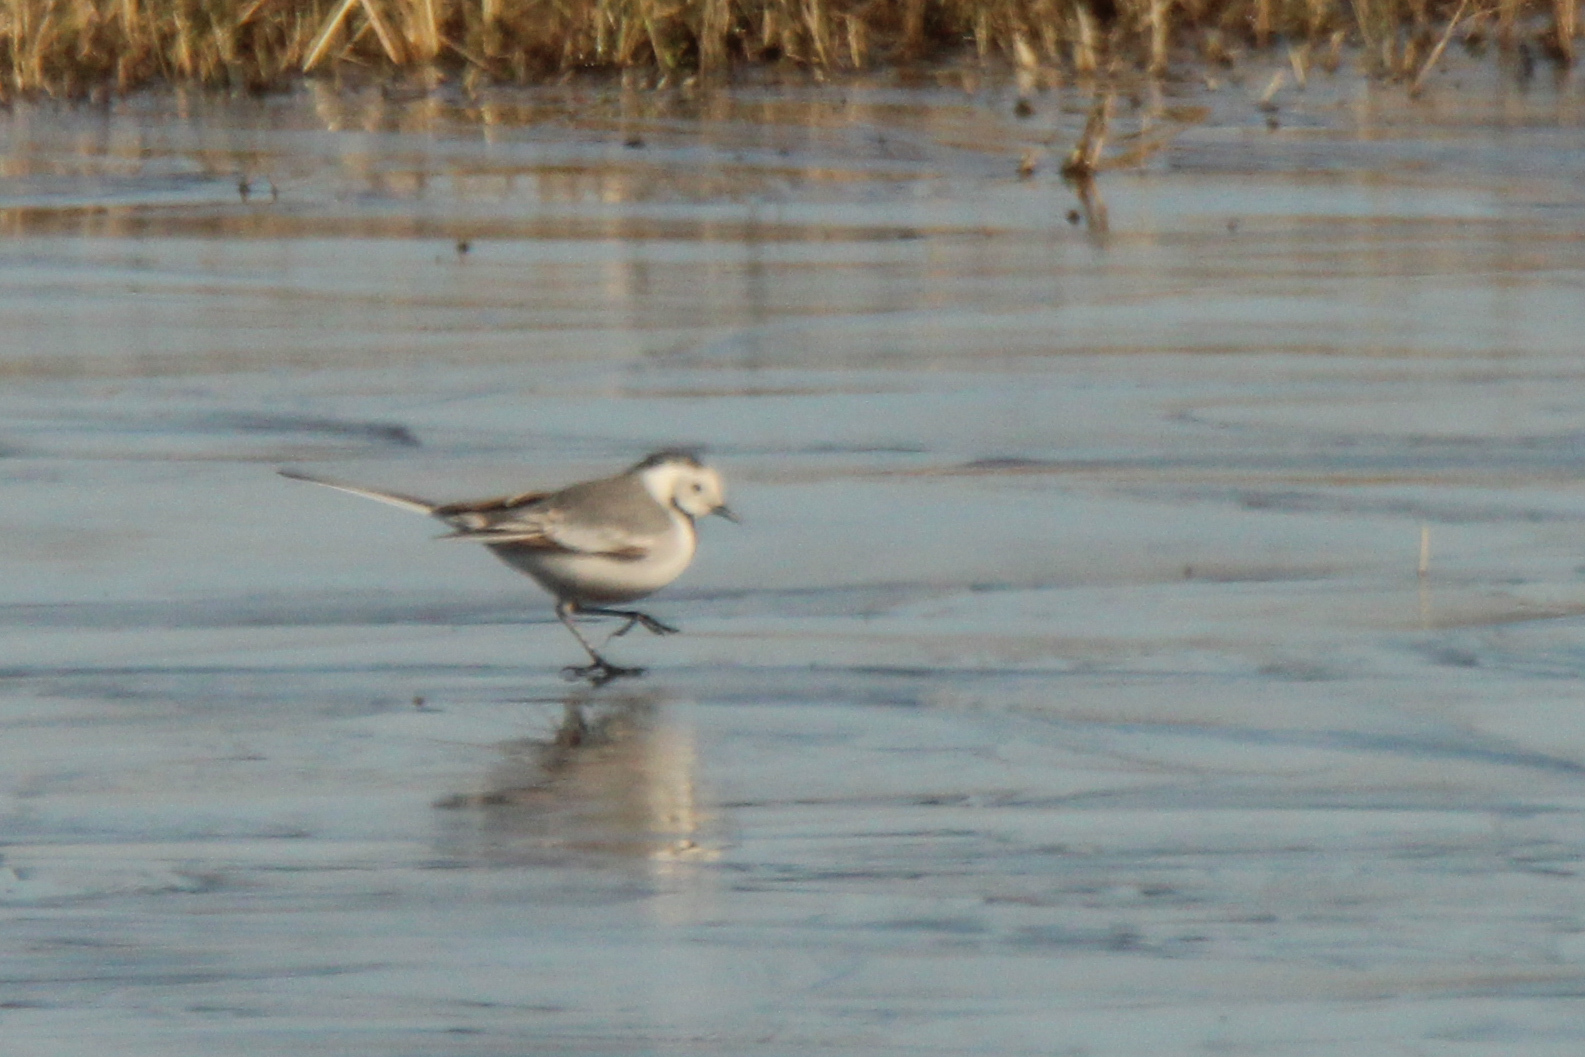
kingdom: Animalia
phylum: Chordata
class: Aves
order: Passeriformes
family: Motacillidae
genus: Motacilla
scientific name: Motacilla alba
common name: White wagtail
